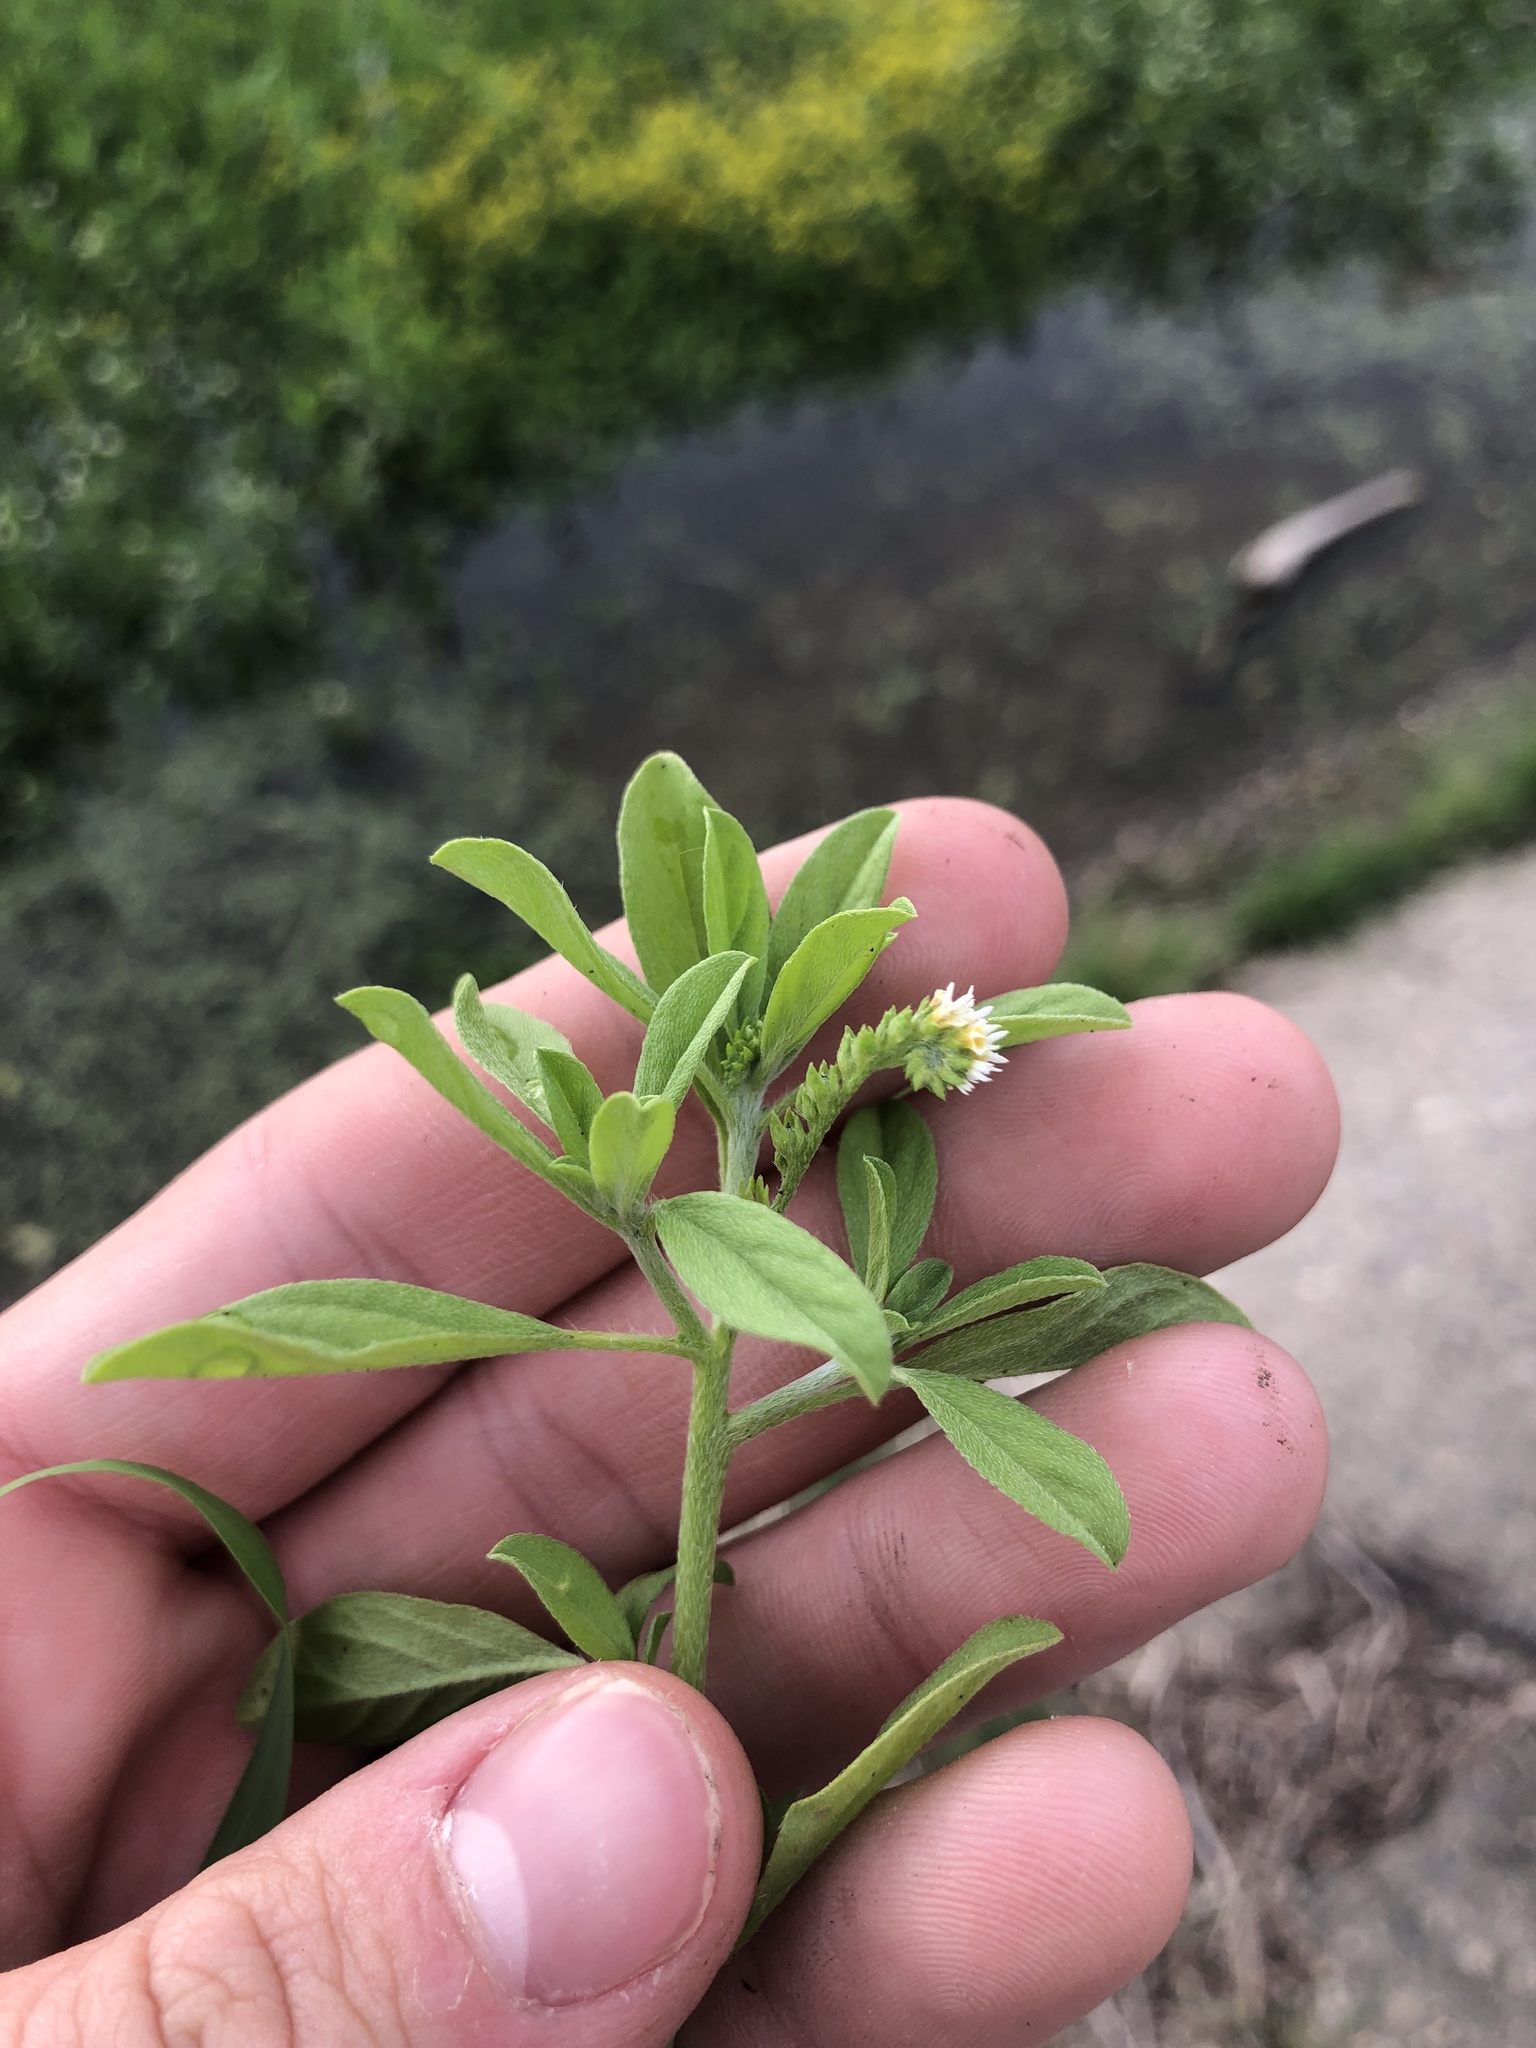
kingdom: Plantae
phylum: Tracheophyta
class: Magnoliopsida
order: Boraginales
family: Heliotropiaceae
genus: Euploca
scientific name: Euploca procumbens
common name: Fourspike heliotrope
